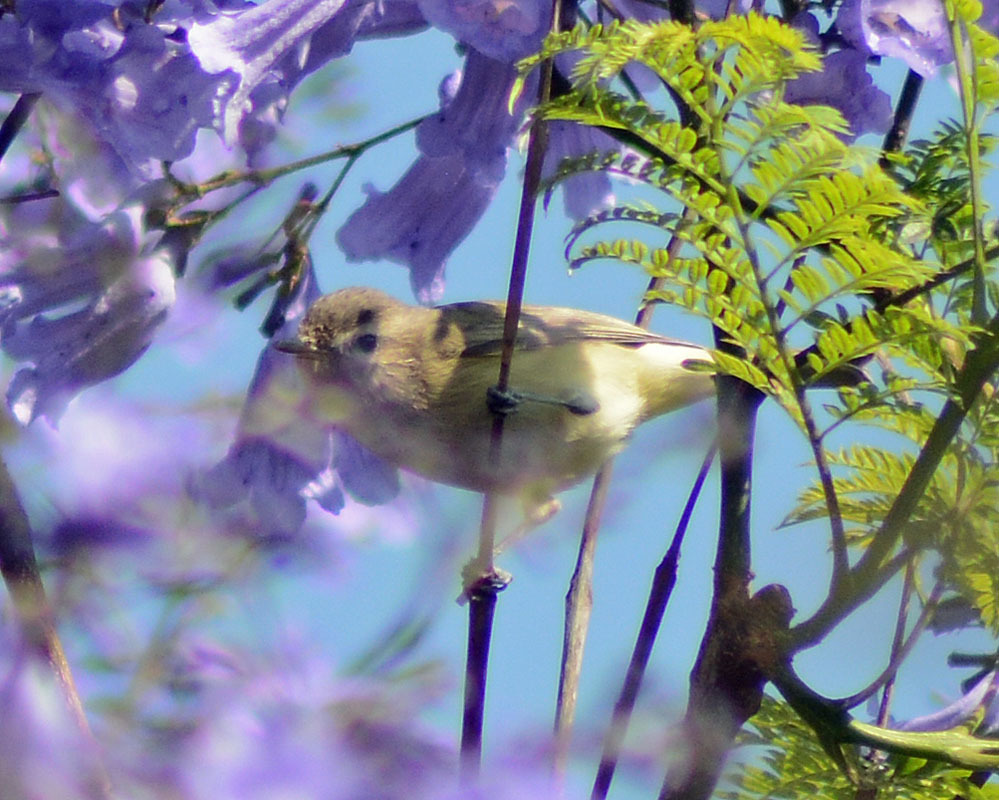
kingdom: Animalia
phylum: Chordata
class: Aves
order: Passeriformes
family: Vireonidae
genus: Vireo
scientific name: Vireo gilvus
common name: Warbling vireo
